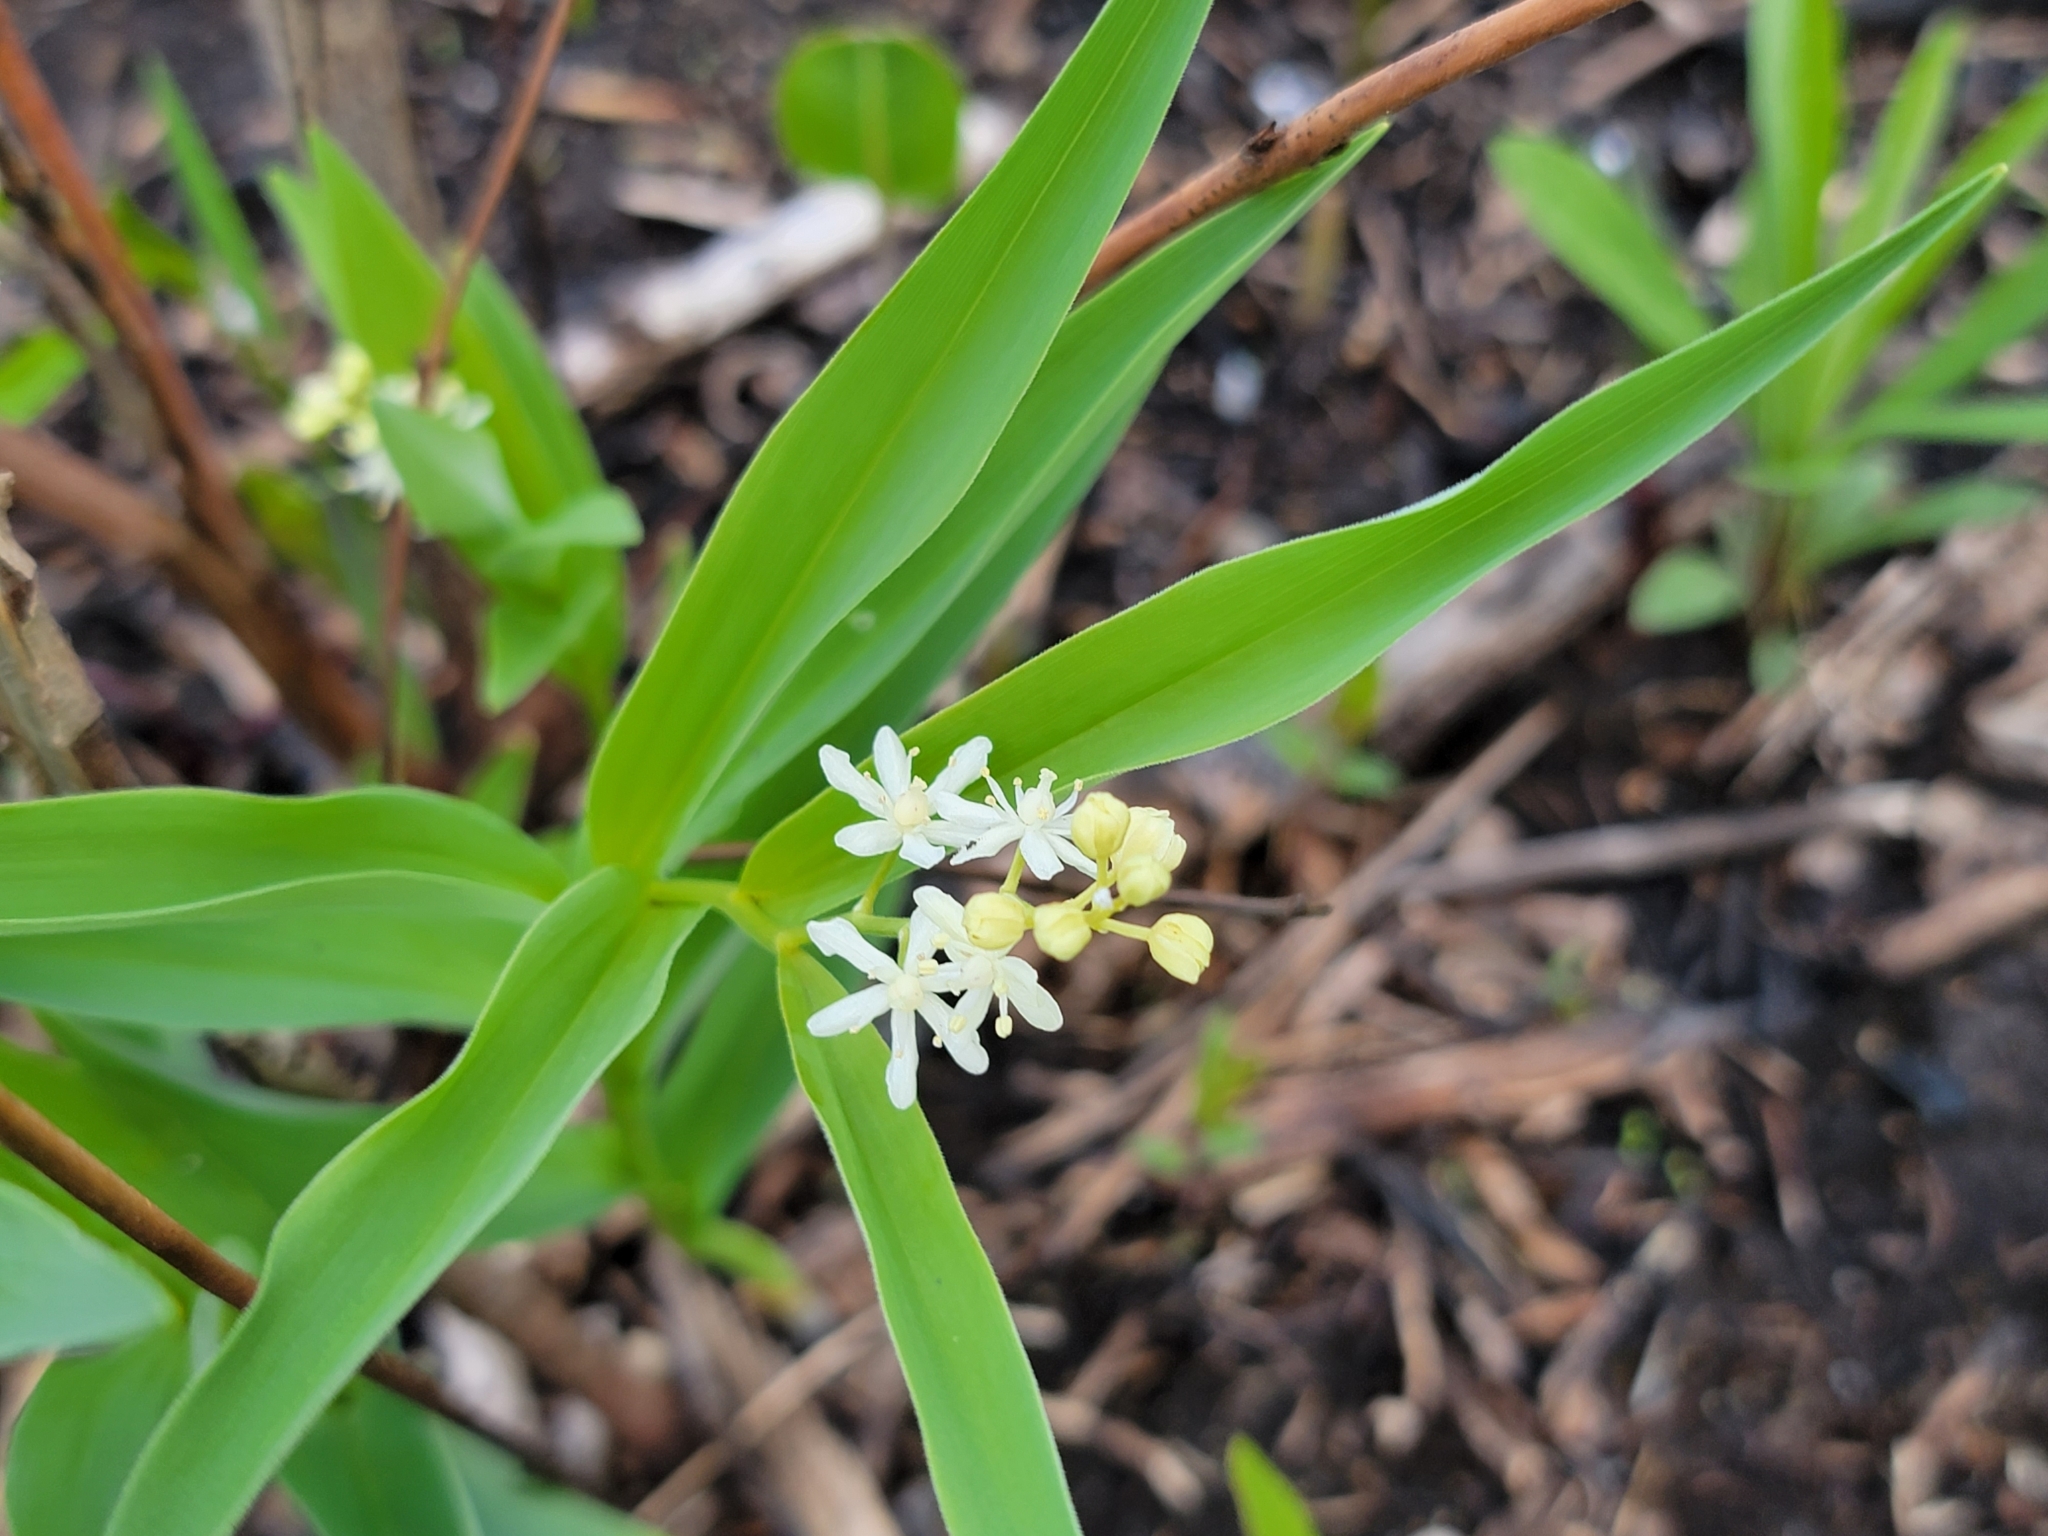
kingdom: Plantae
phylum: Tracheophyta
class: Liliopsida
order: Asparagales
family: Asparagaceae
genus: Maianthemum
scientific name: Maianthemum stellatum
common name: Little false solomon's seal
